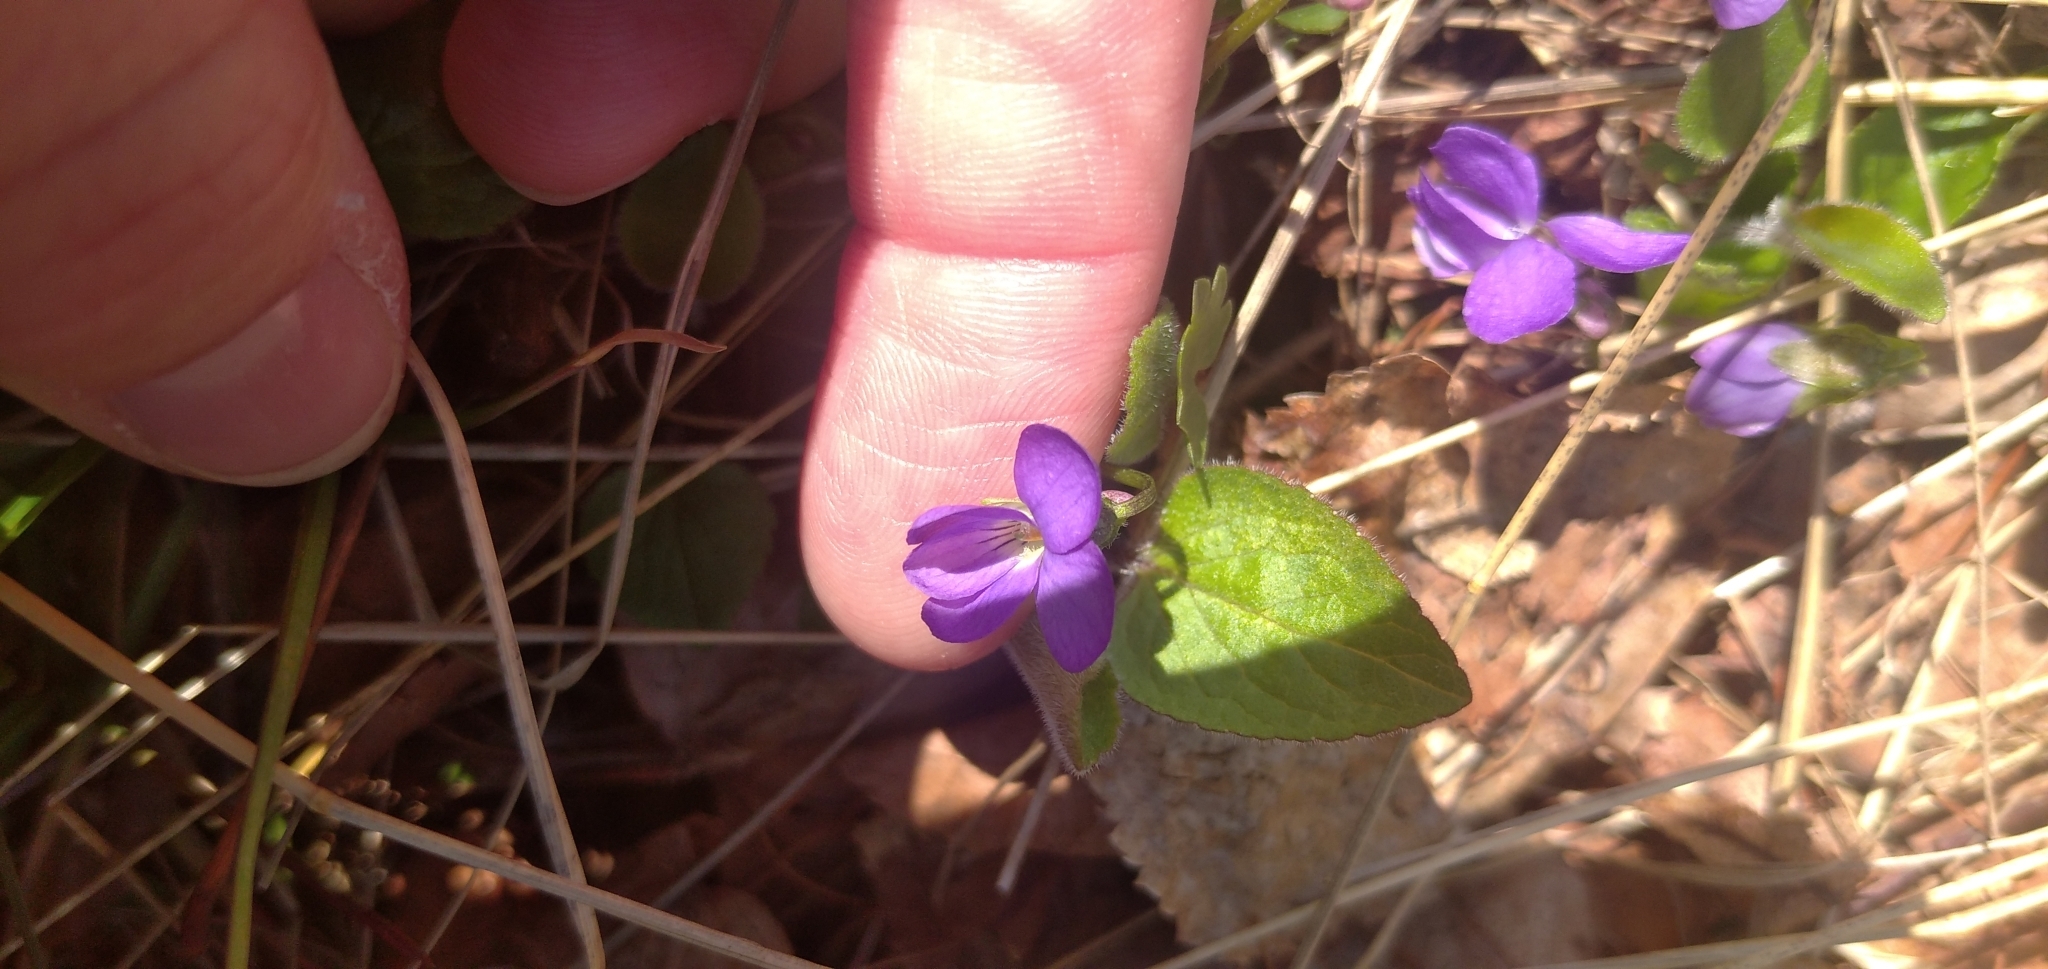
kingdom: Plantae
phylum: Tracheophyta
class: Magnoliopsida
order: Malpighiales
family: Violaceae
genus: Viola
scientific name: Viola hirta
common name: Hairy violet
